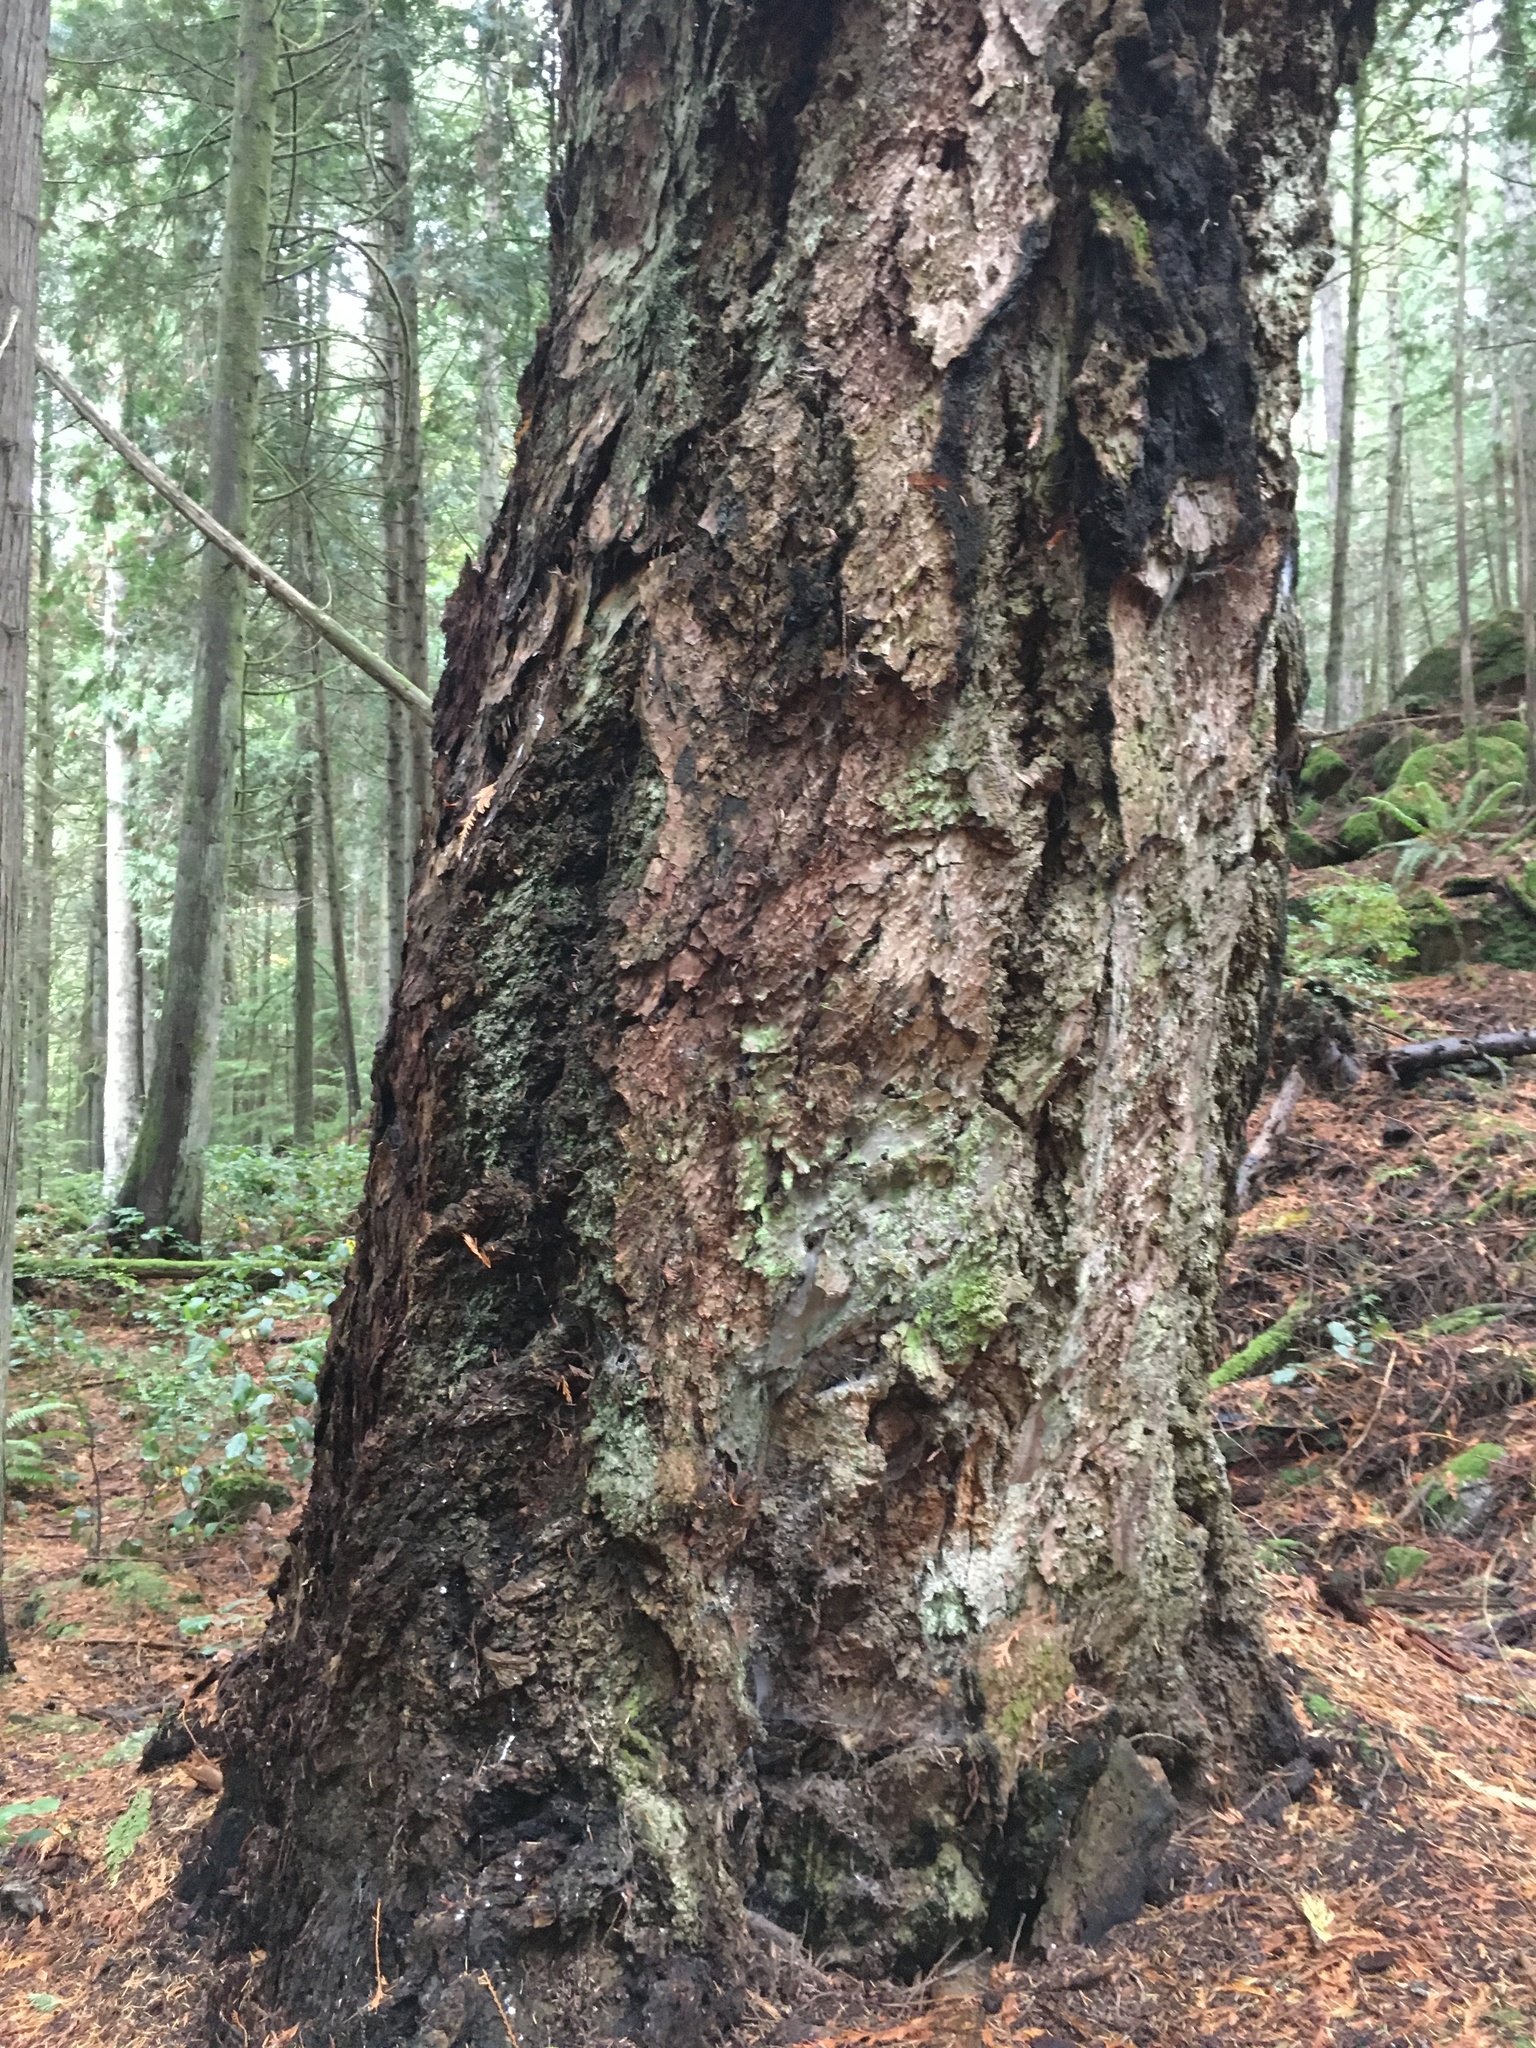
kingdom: Plantae
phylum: Tracheophyta
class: Pinopsida
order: Pinales
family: Pinaceae
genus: Pseudotsuga
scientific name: Pseudotsuga menziesii
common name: Douglas fir
